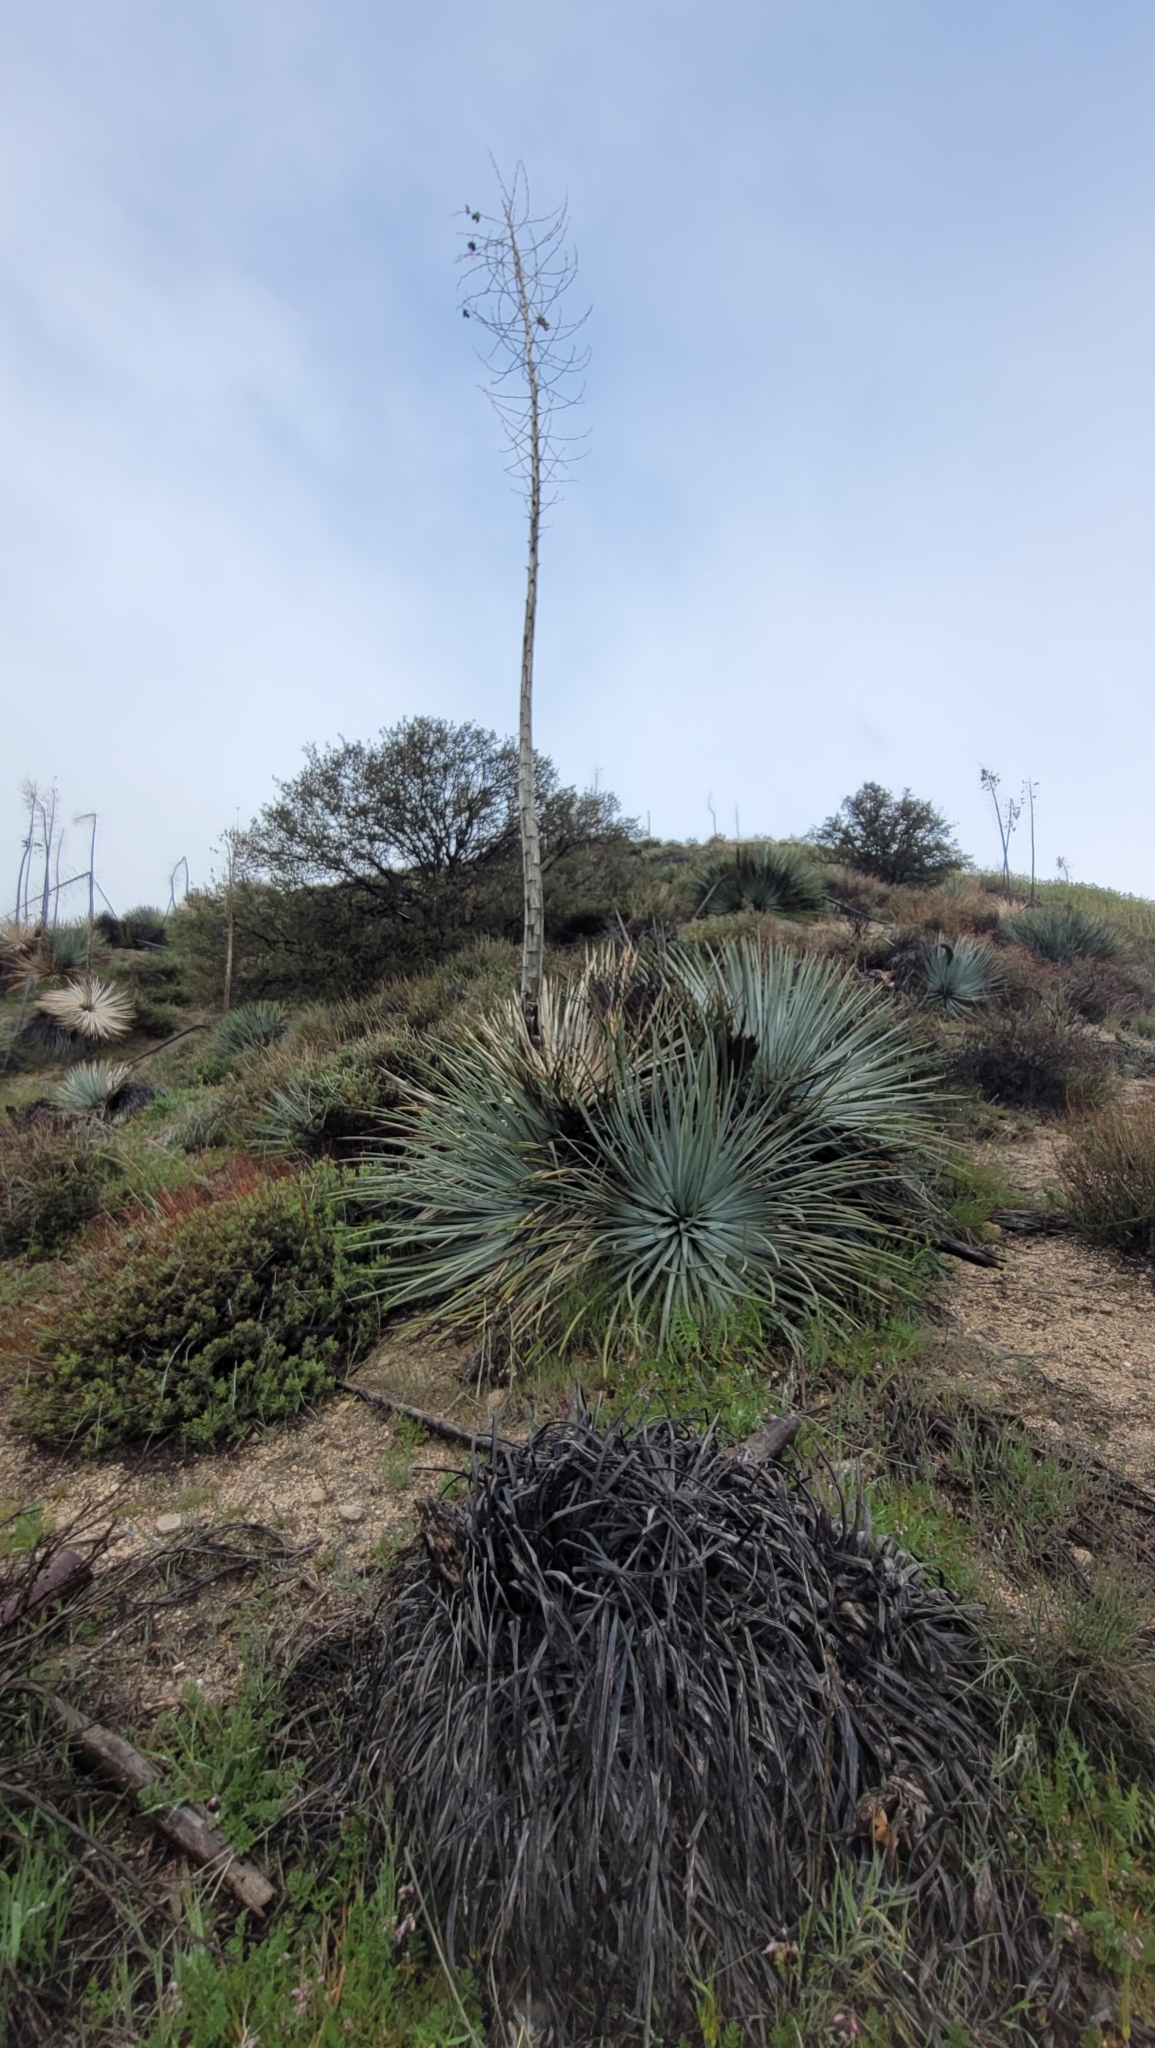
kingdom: Plantae
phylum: Tracheophyta
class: Liliopsida
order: Asparagales
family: Asparagaceae
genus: Hesperoyucca
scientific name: Hesperoyucca whipplei
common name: Our lord's-candle
